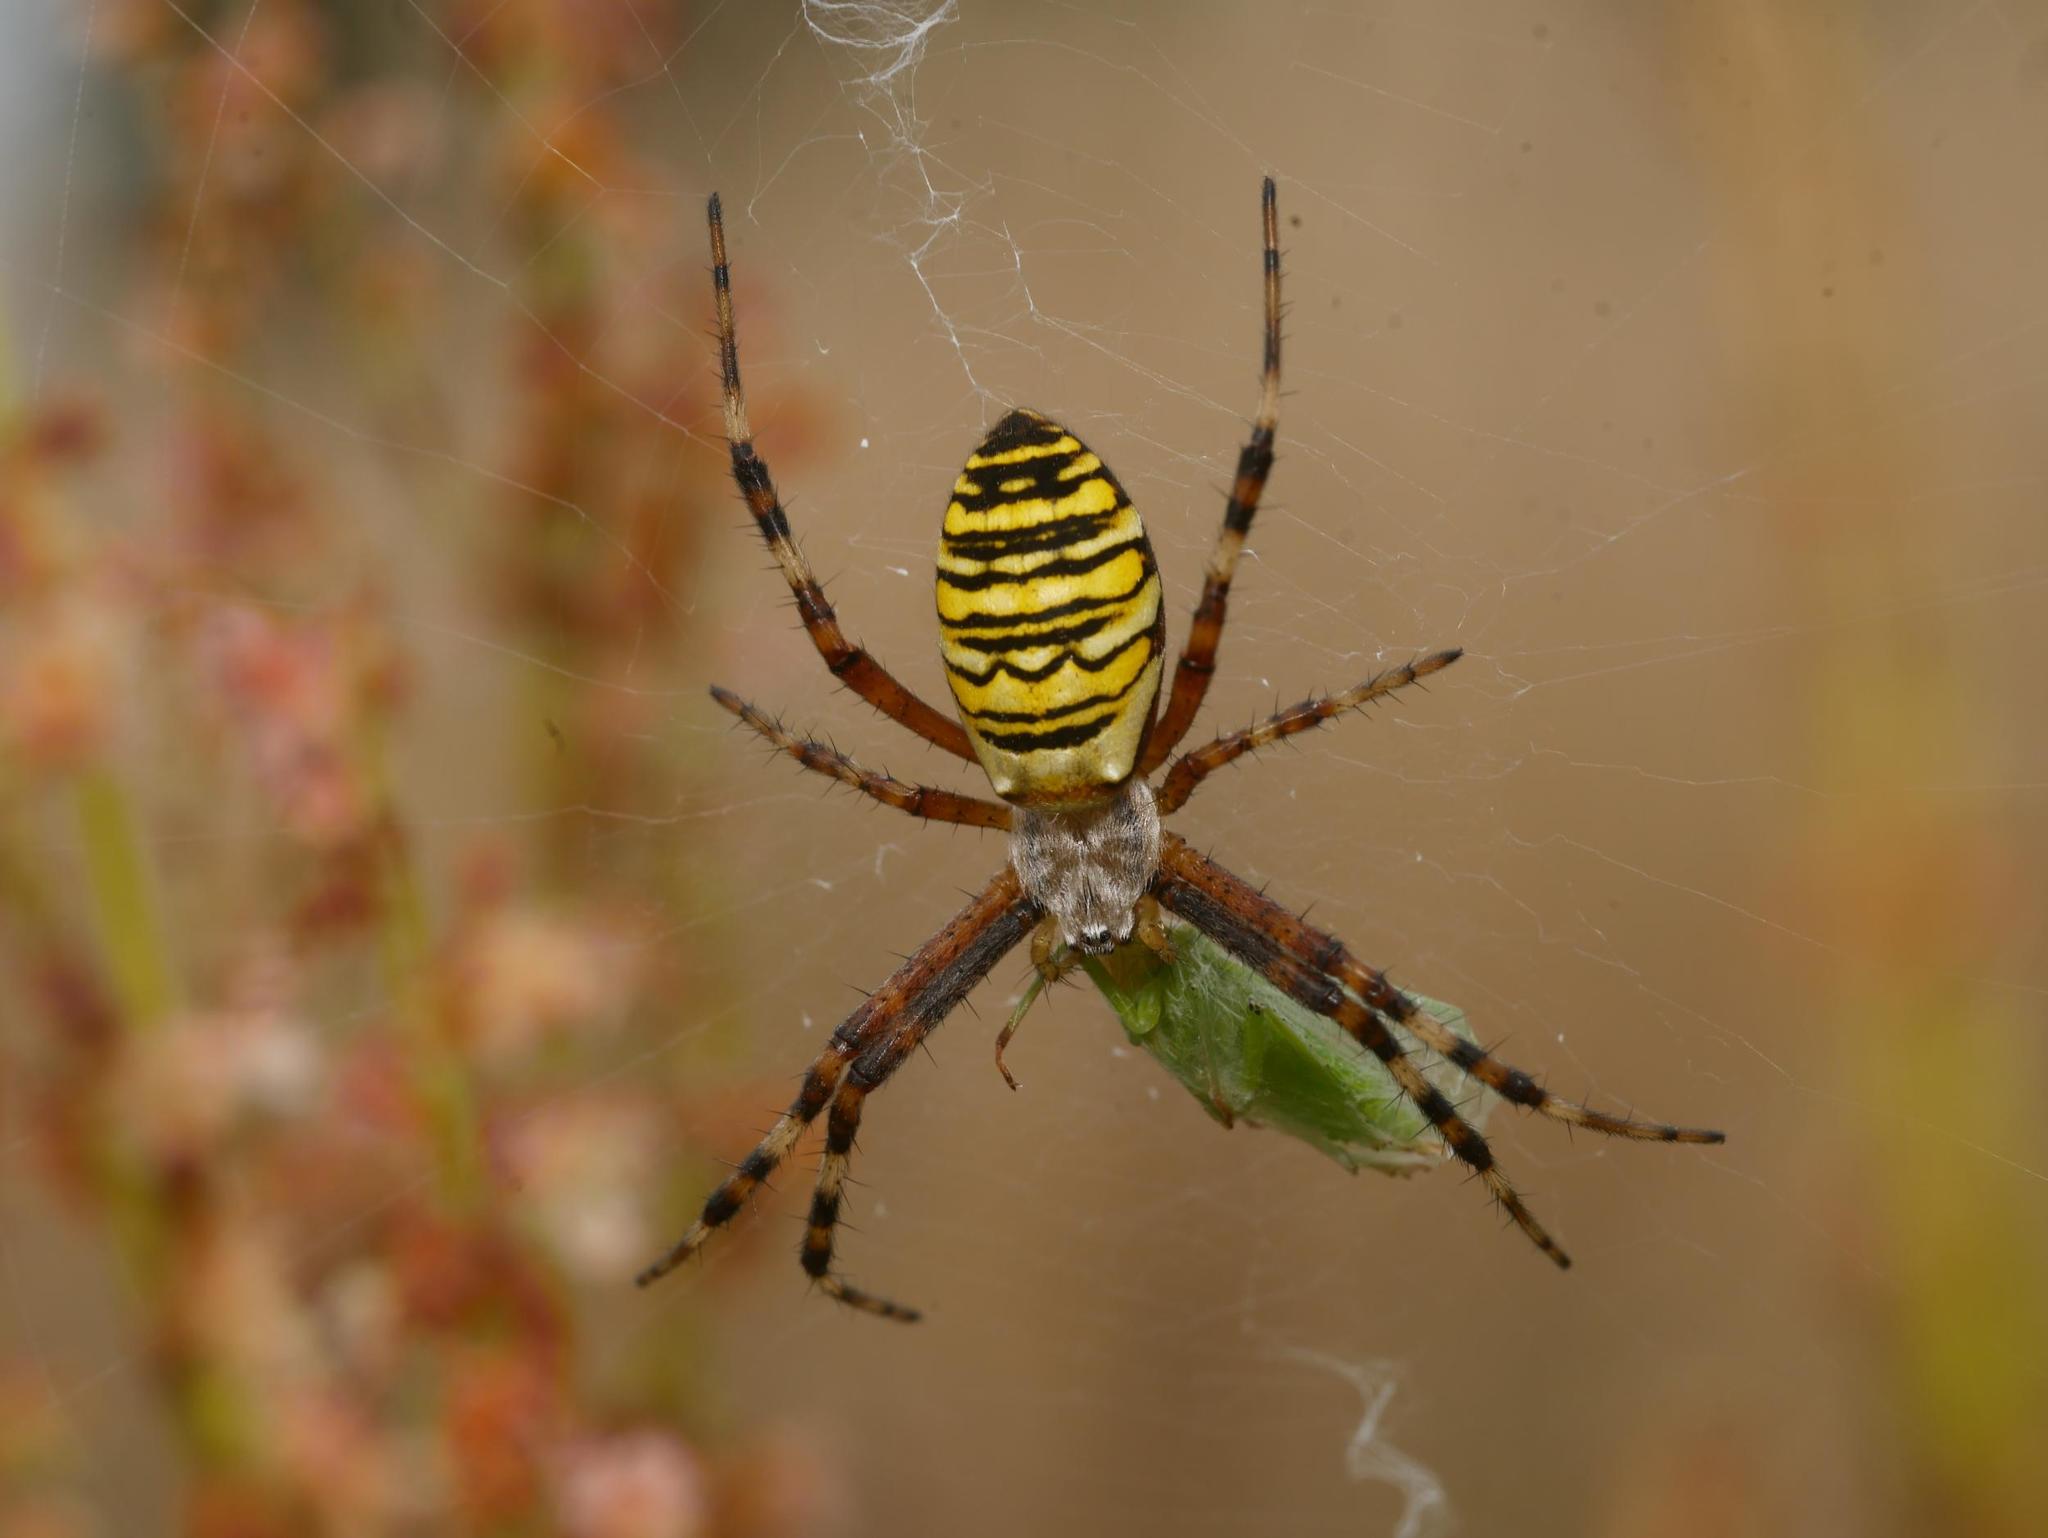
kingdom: Animalia
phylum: Arthropoda
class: Arachnida
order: Araneae
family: Araneidae
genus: Argiope
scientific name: Argiope bruennichi
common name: Wasp spider
